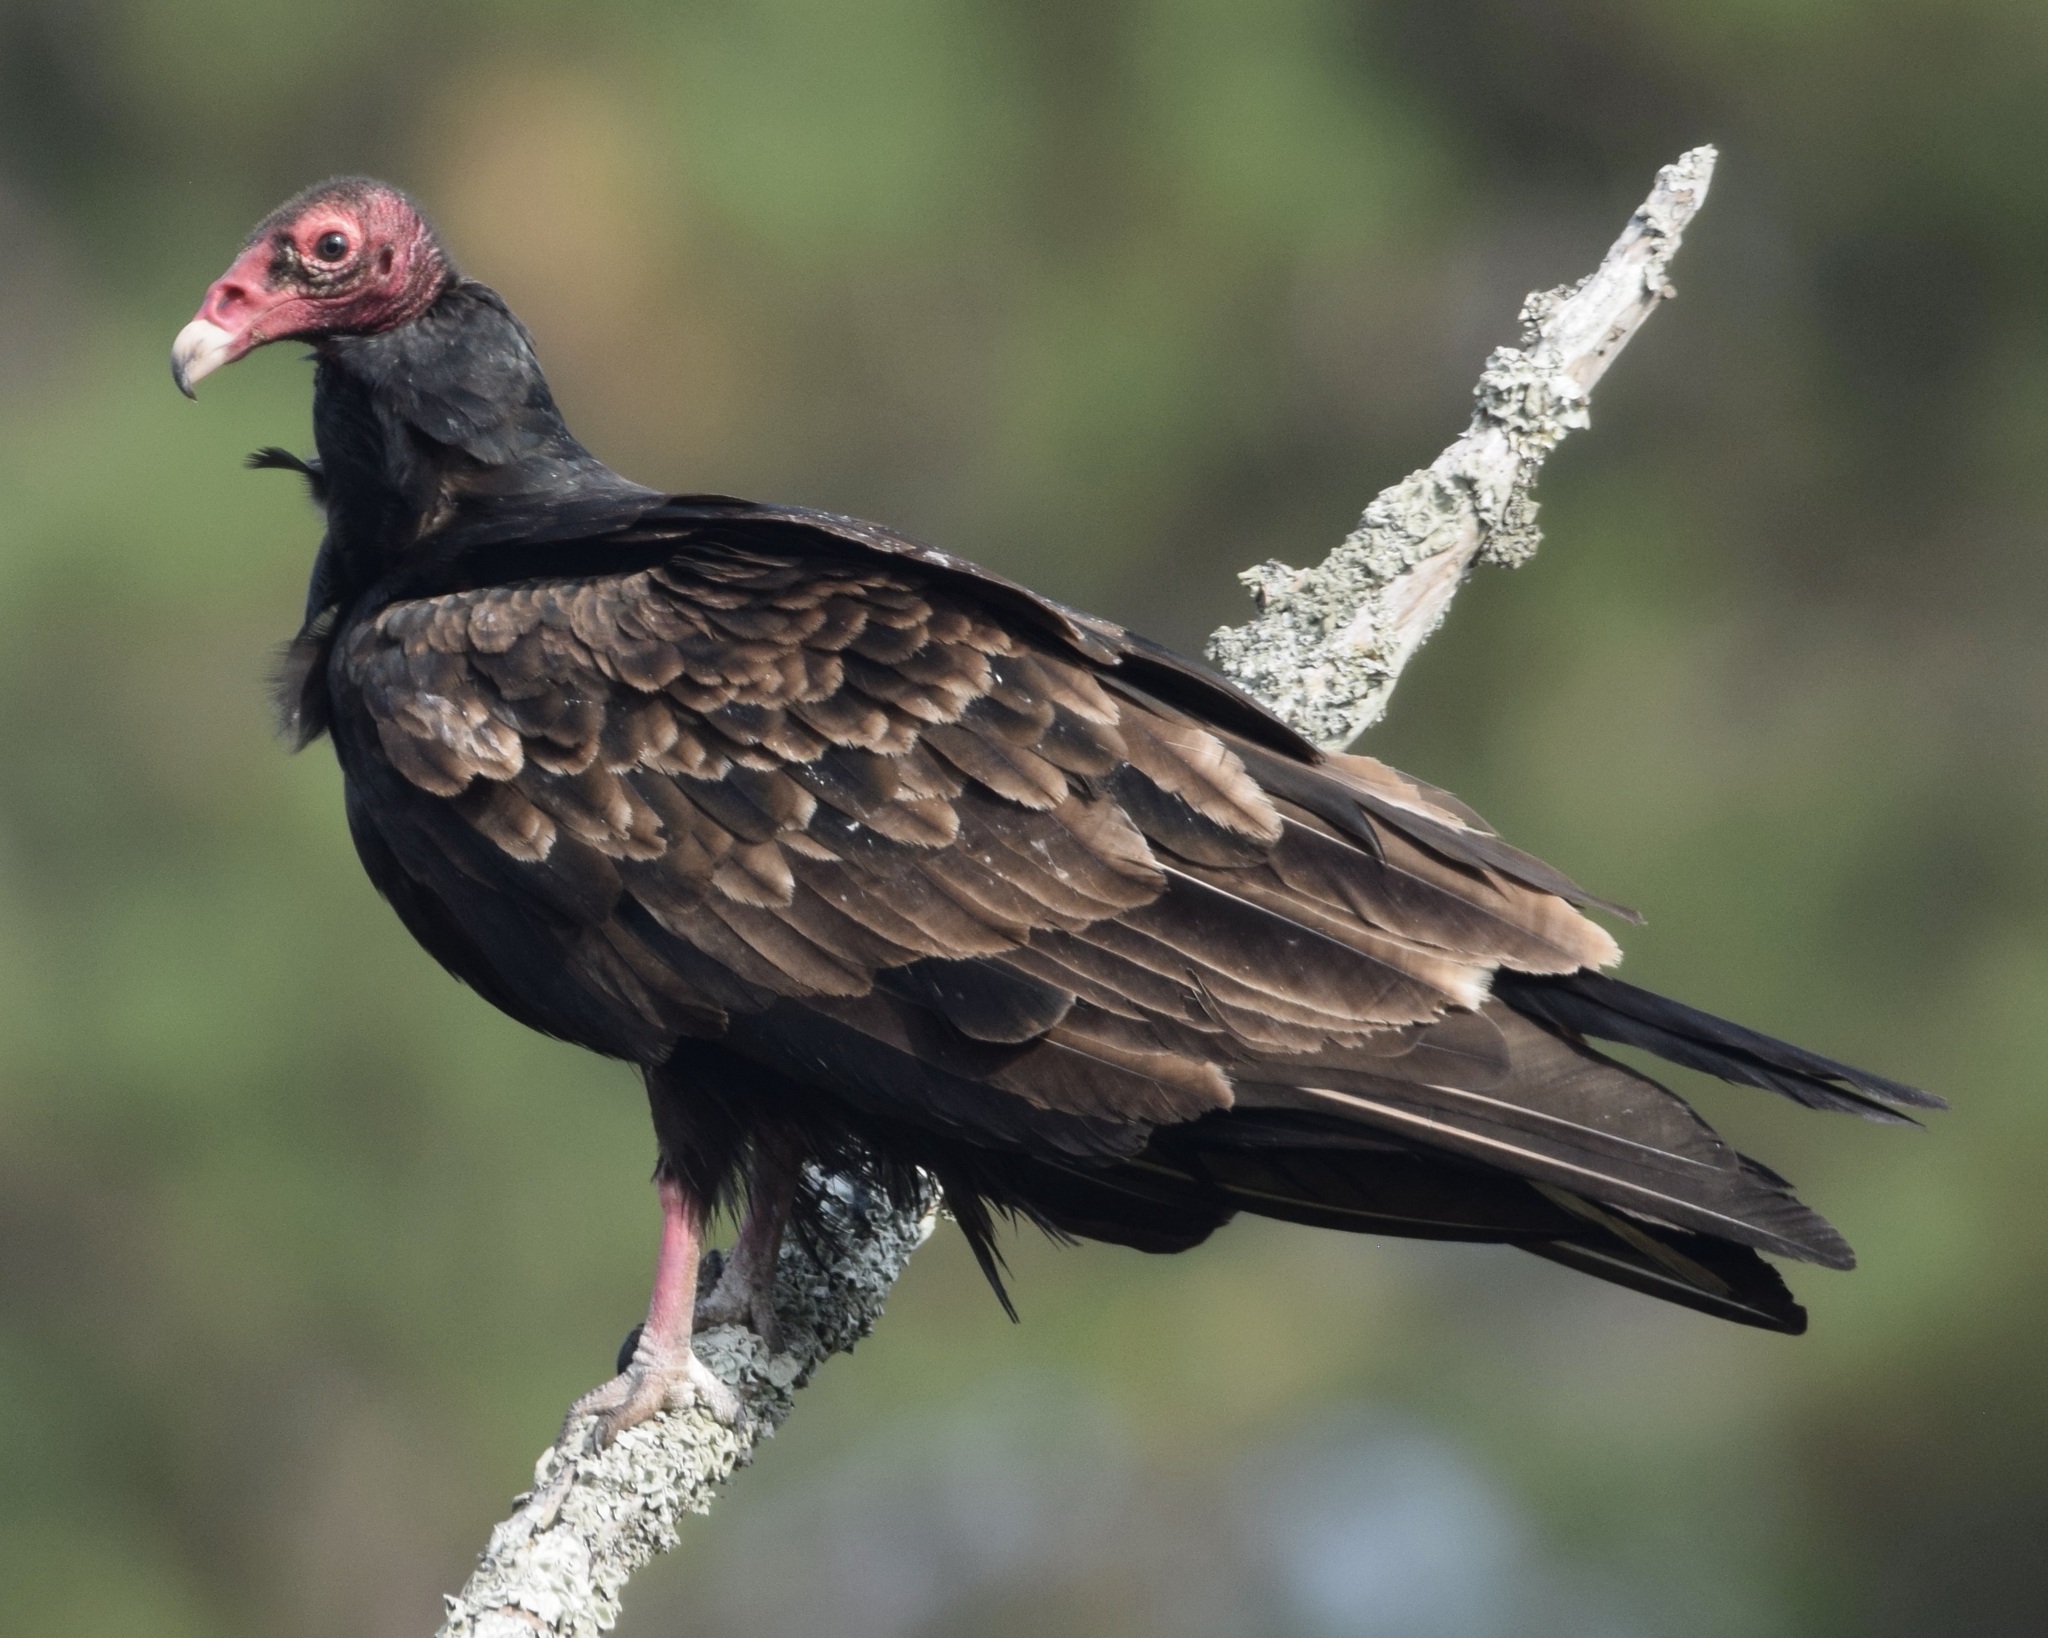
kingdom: Animalia
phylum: Chordata
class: Aves
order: Accipitriformes
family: Cathartidae
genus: Cathartes
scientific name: Cathartes aura
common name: Turkey vulture
